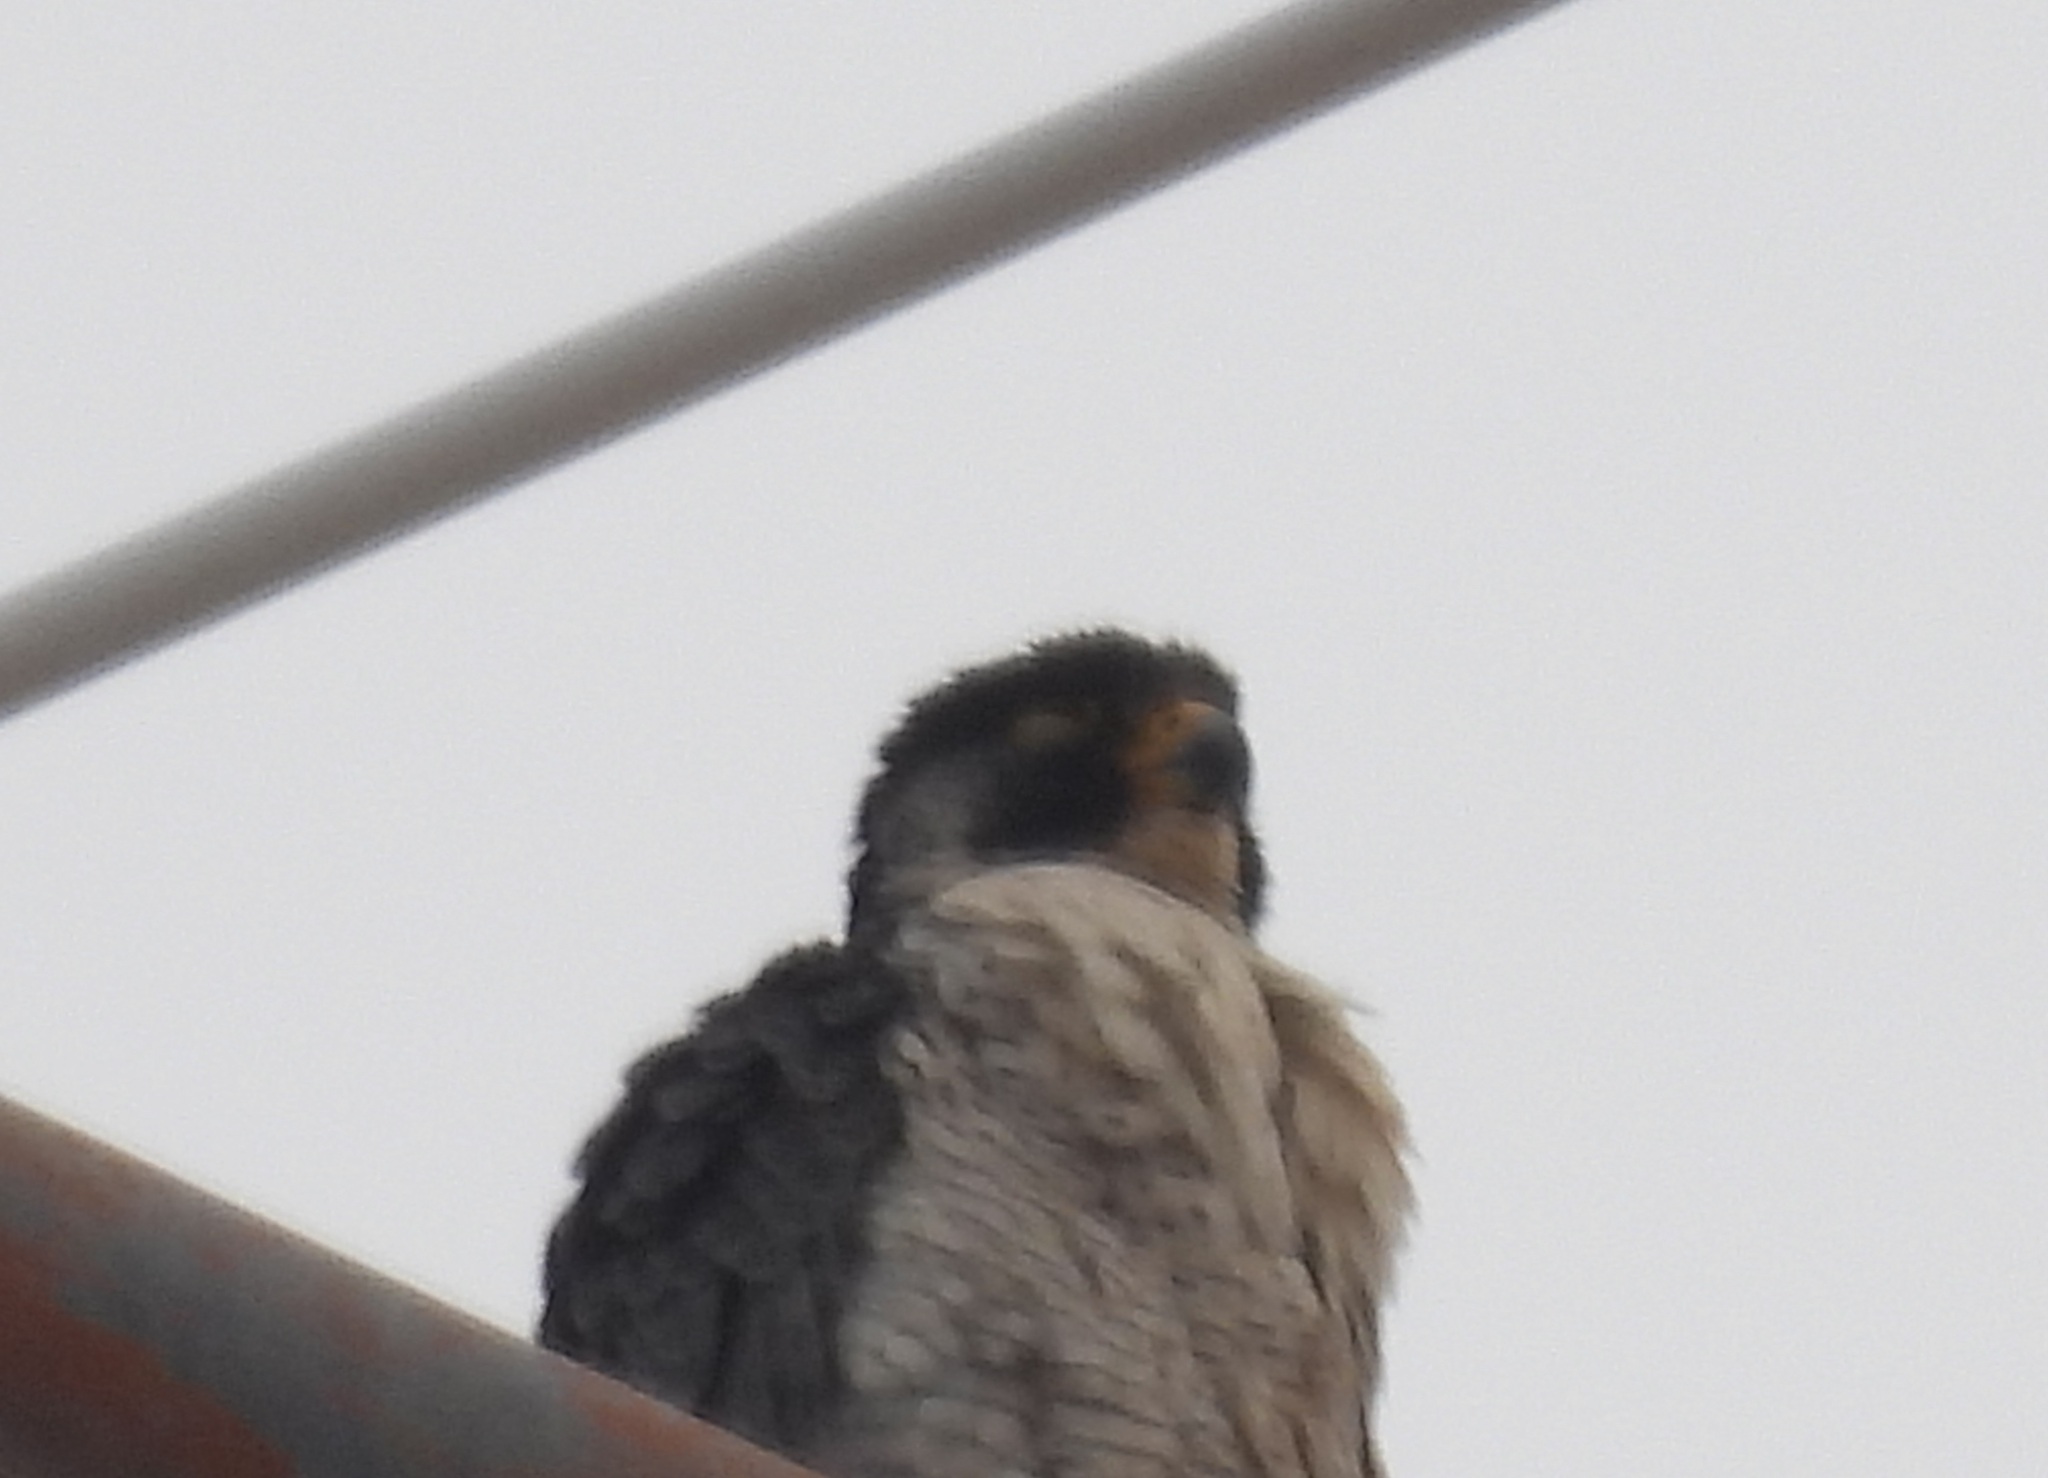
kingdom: Animalia
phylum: Chordata
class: Aves
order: Falconiformes
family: Falconidae
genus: Falco
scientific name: Falco peregrinus
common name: Peregrine falcon
